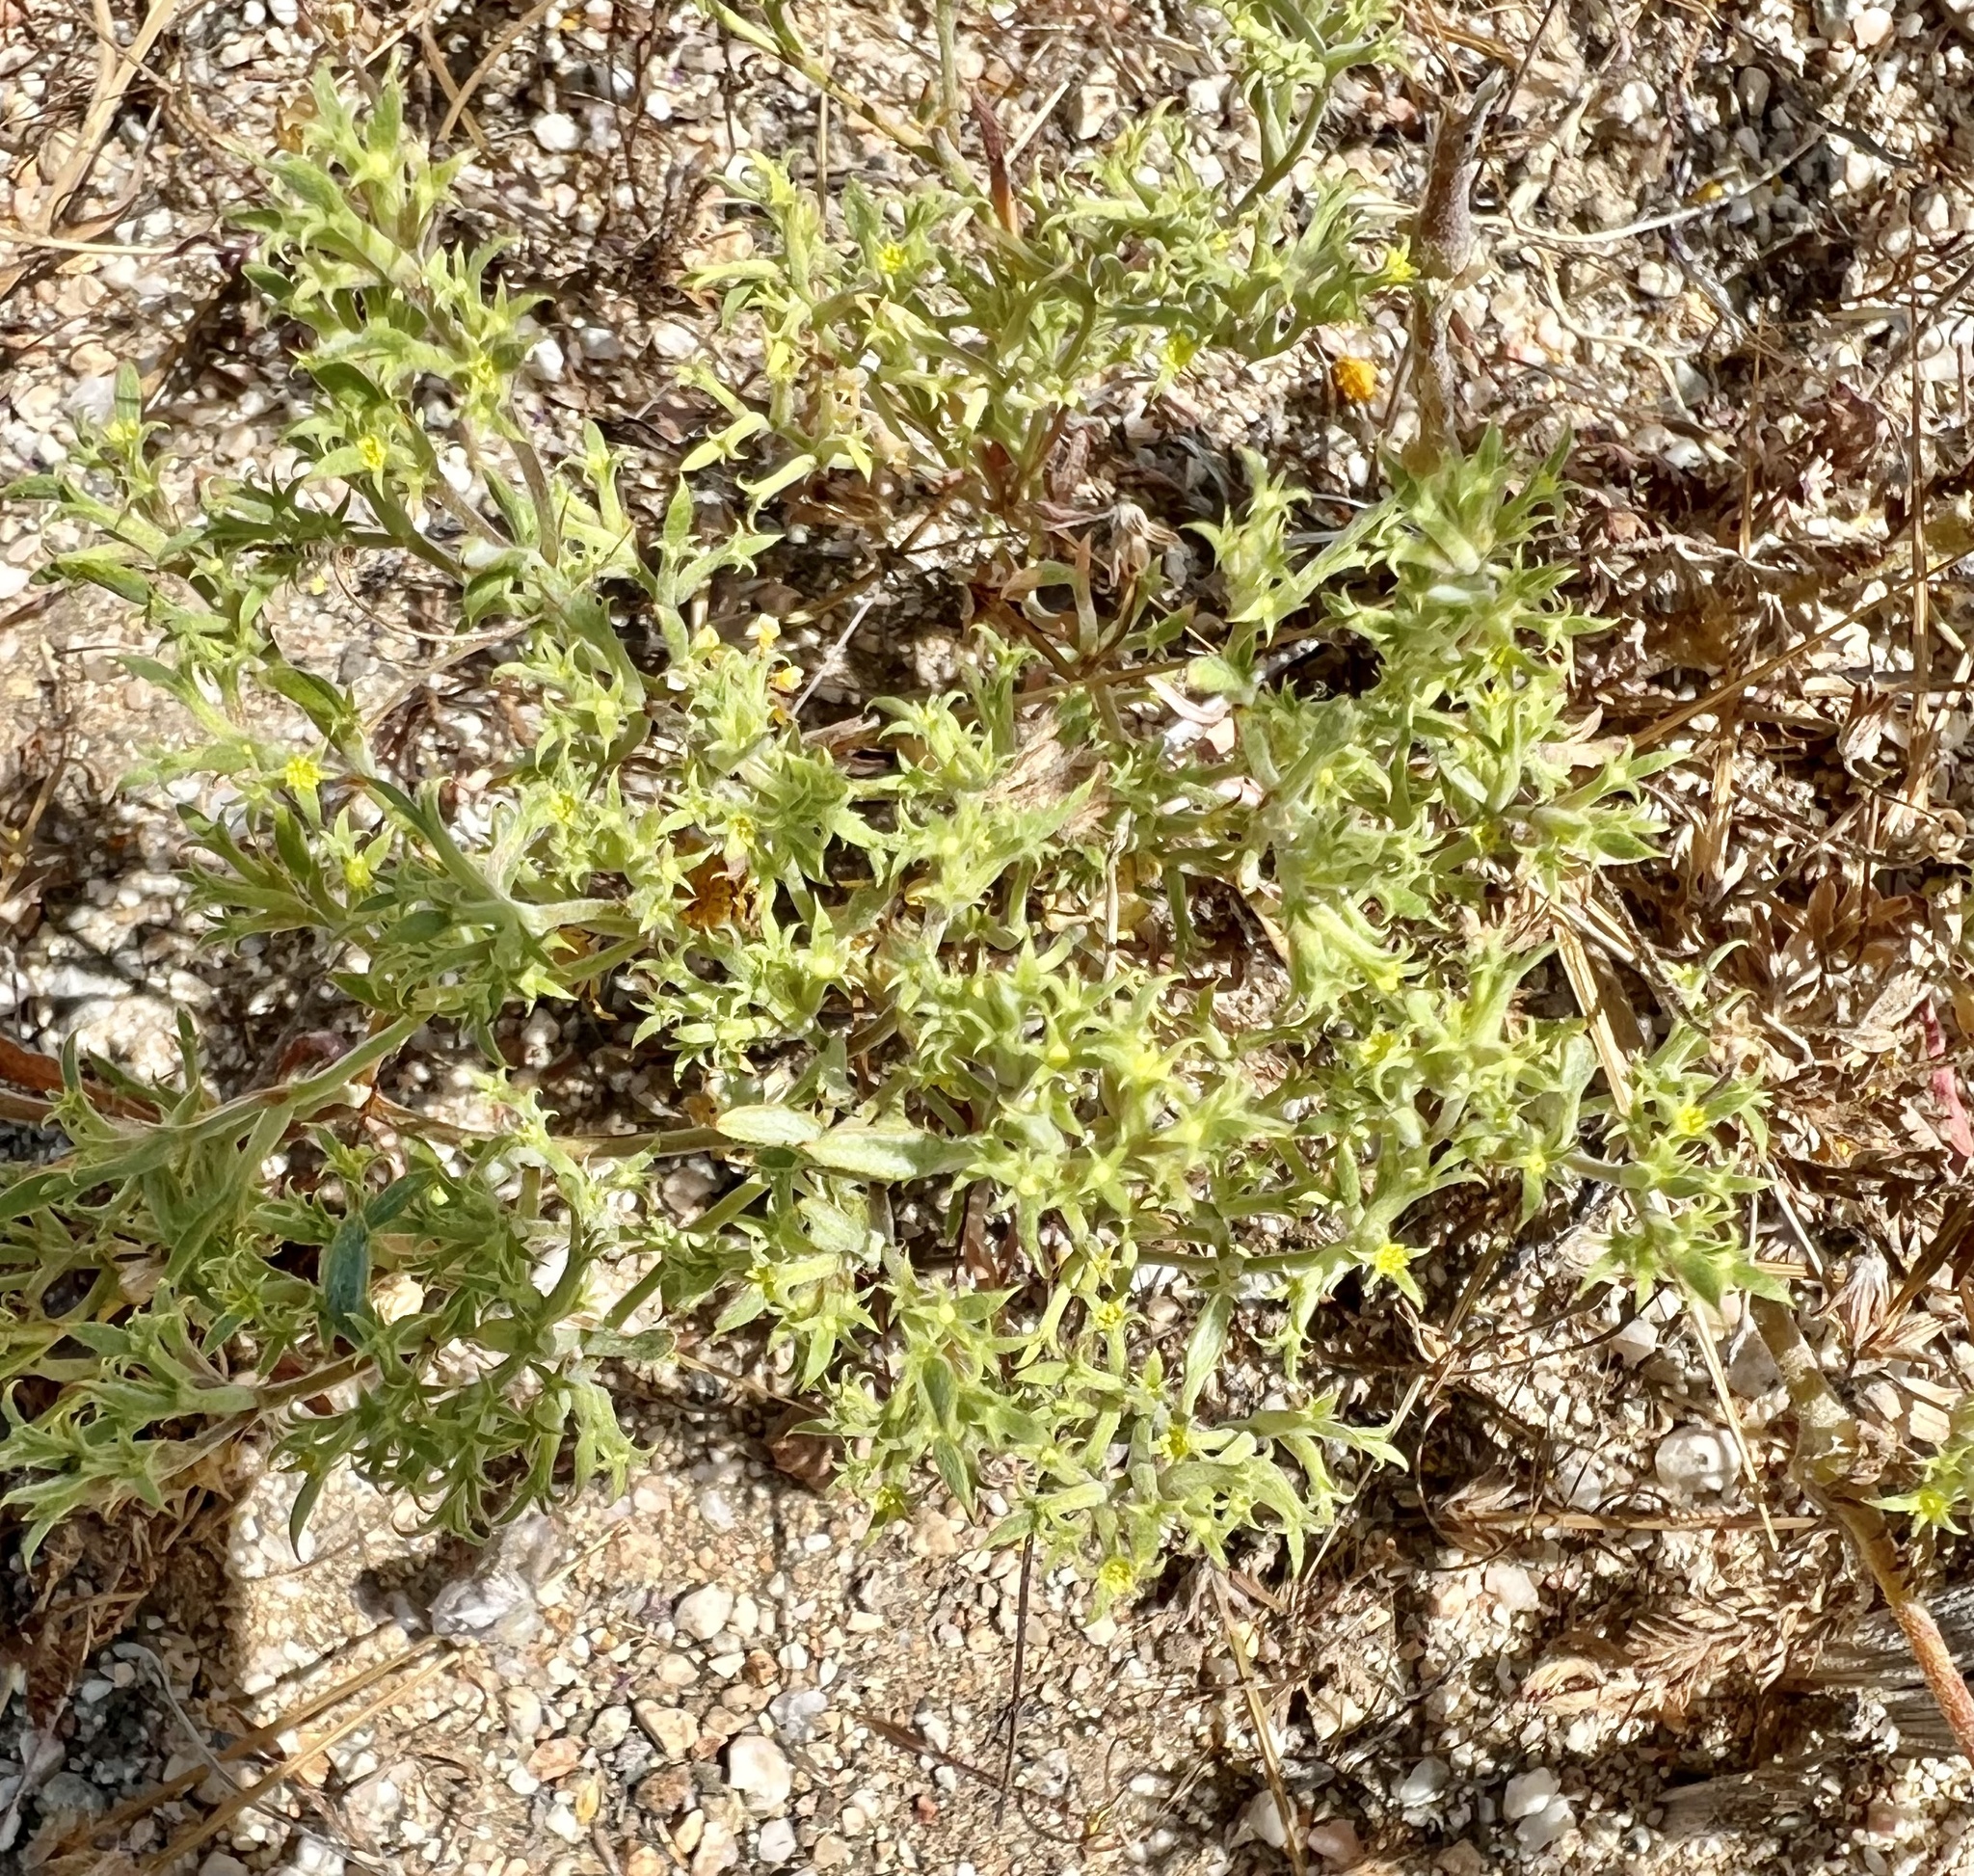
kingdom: Plantae
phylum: Tracheophyta
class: Magnoliopsida
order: Caryophyllales
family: Polygonaceae
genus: Chorizanthe
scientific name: Chorizanthe watsonii
